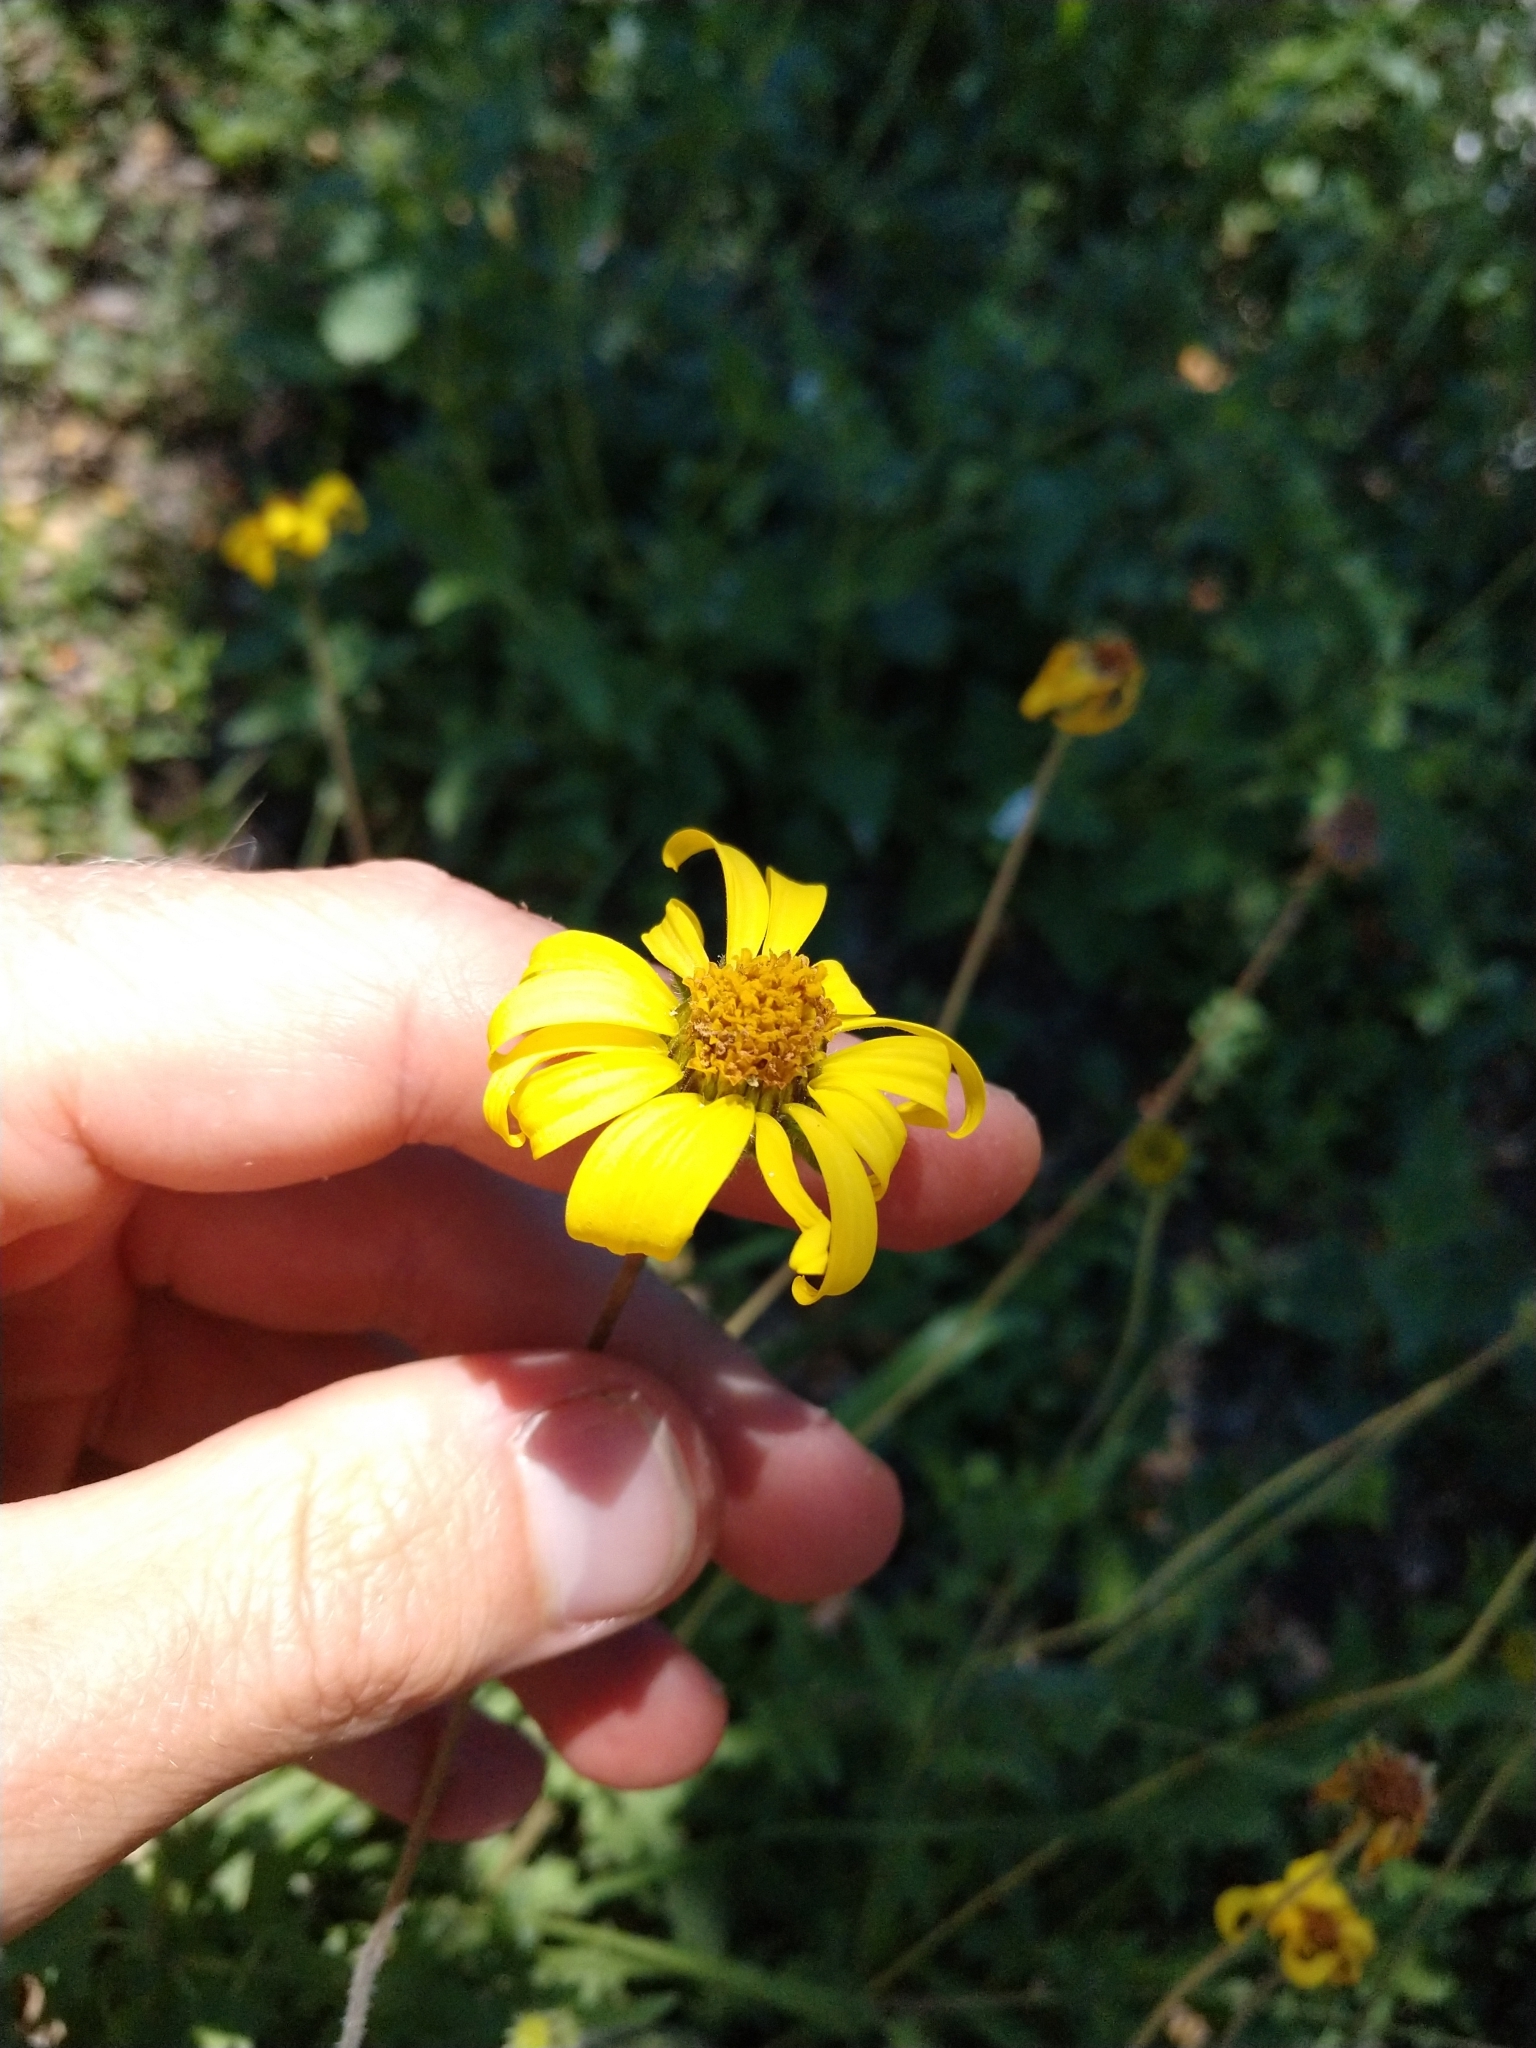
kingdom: Plantae
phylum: Tracheophyta
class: Magnoliopsida
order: Asterales
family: Asteraceae
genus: Simsia
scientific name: Simsia calva
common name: Awnless bush-sunflower
